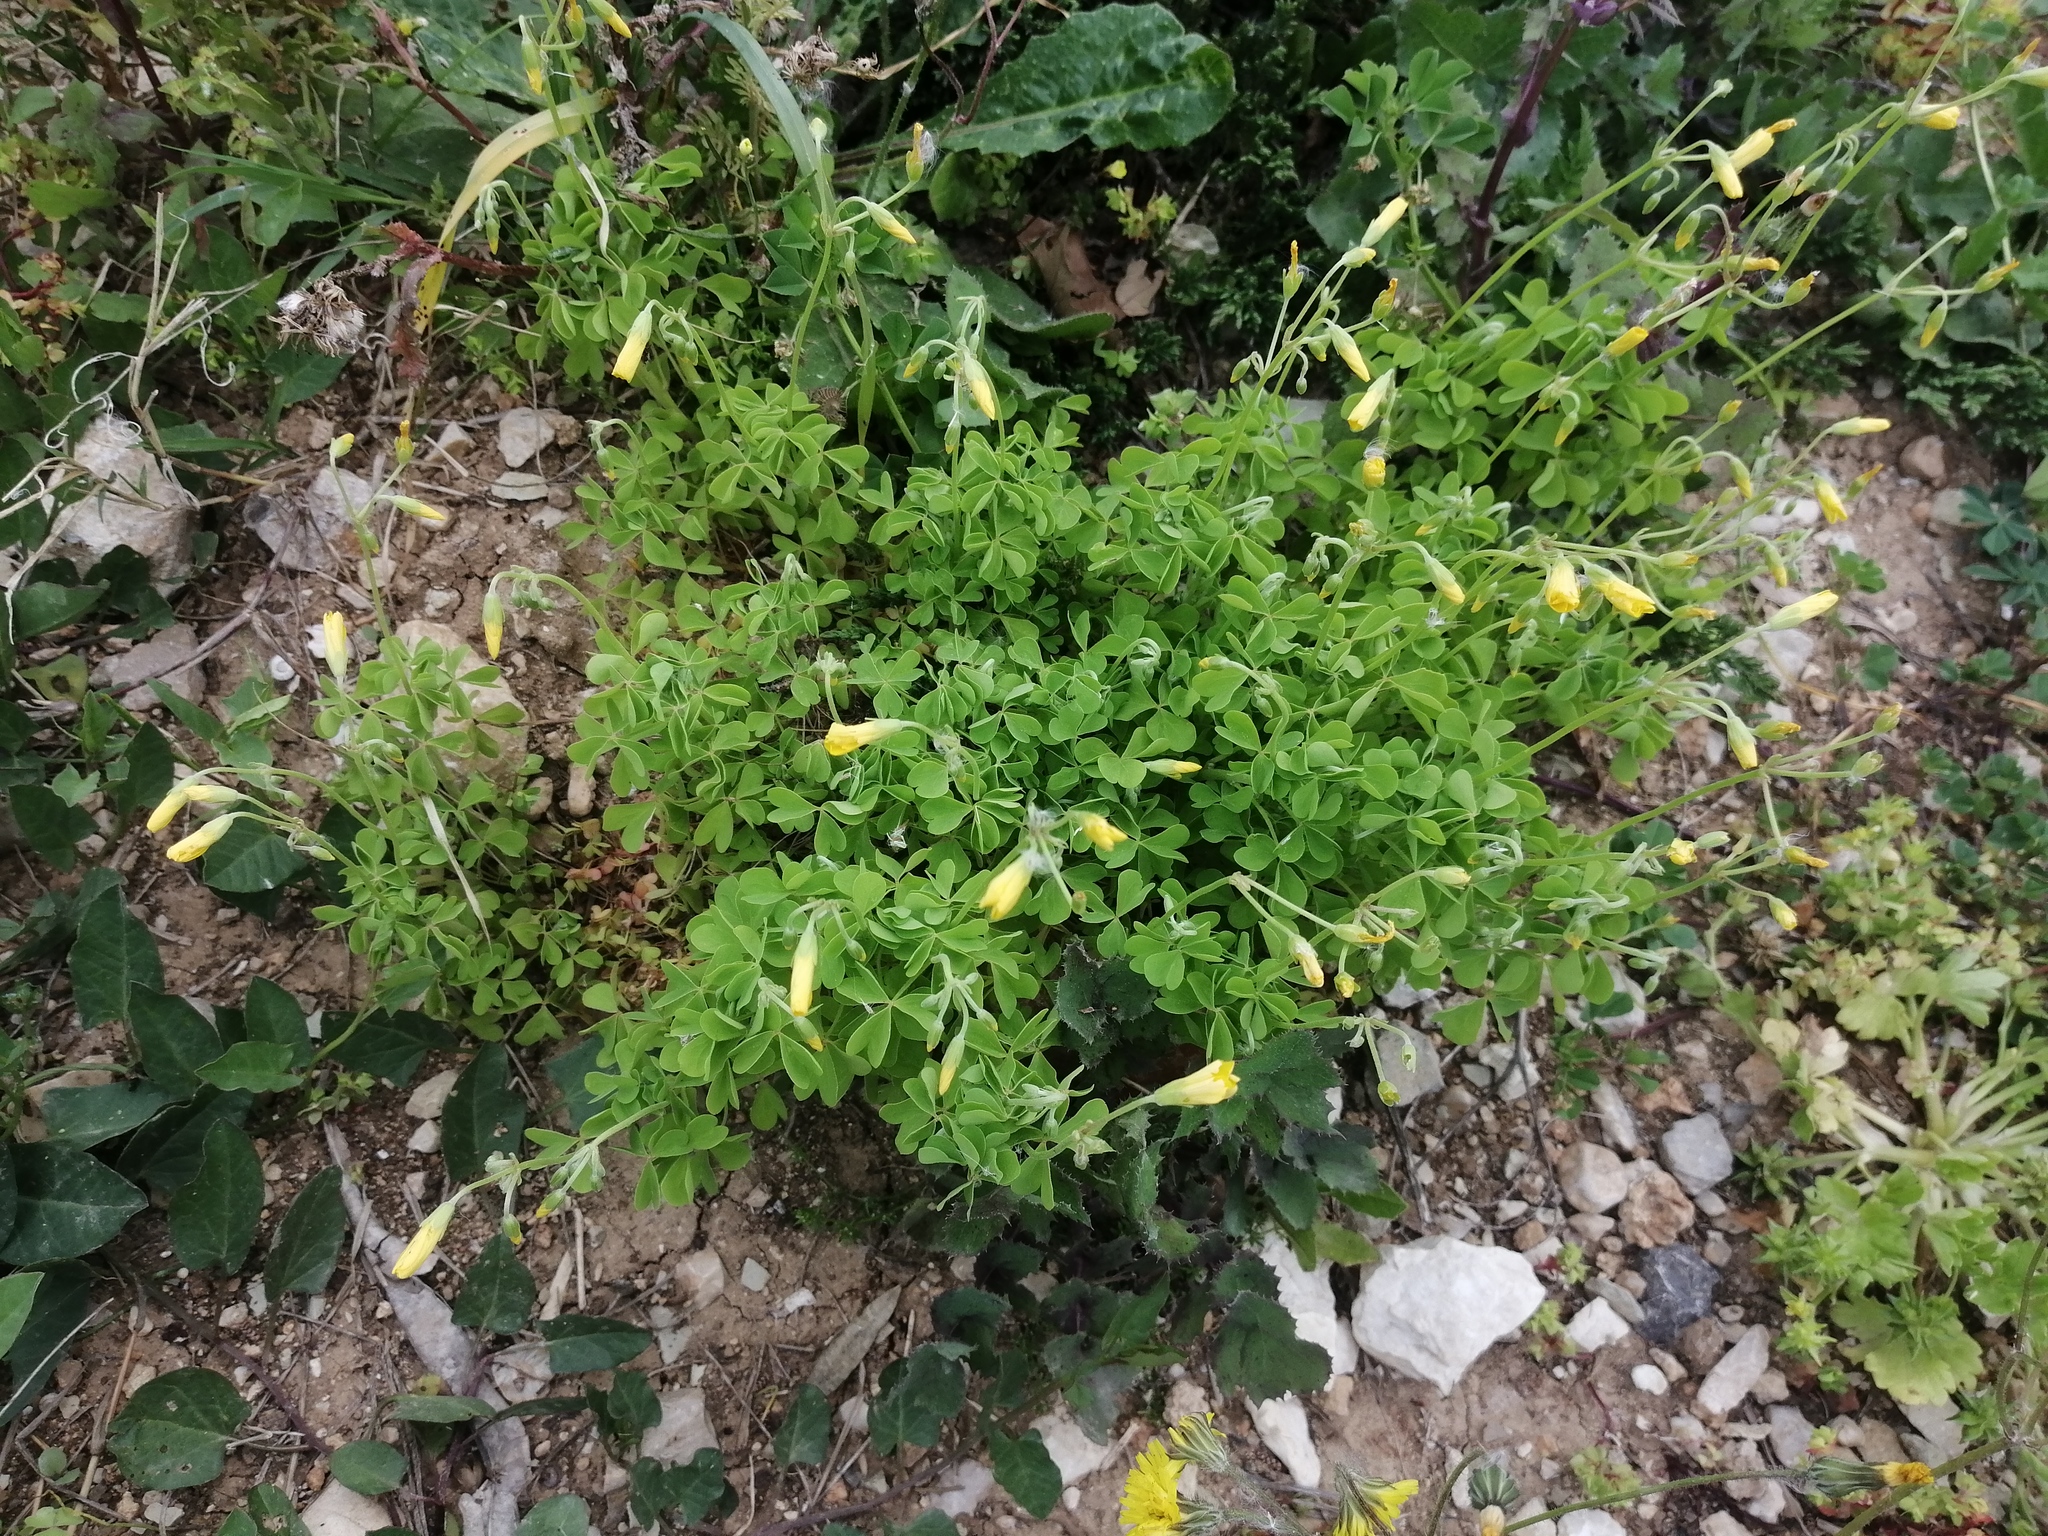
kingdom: Plantae
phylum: Tracheophyta
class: Magnoliopsida
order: Oxalidales
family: Oxalidaceae
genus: Oxalis
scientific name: Oxalis dillenii
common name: Sussex yellow-sorrel
